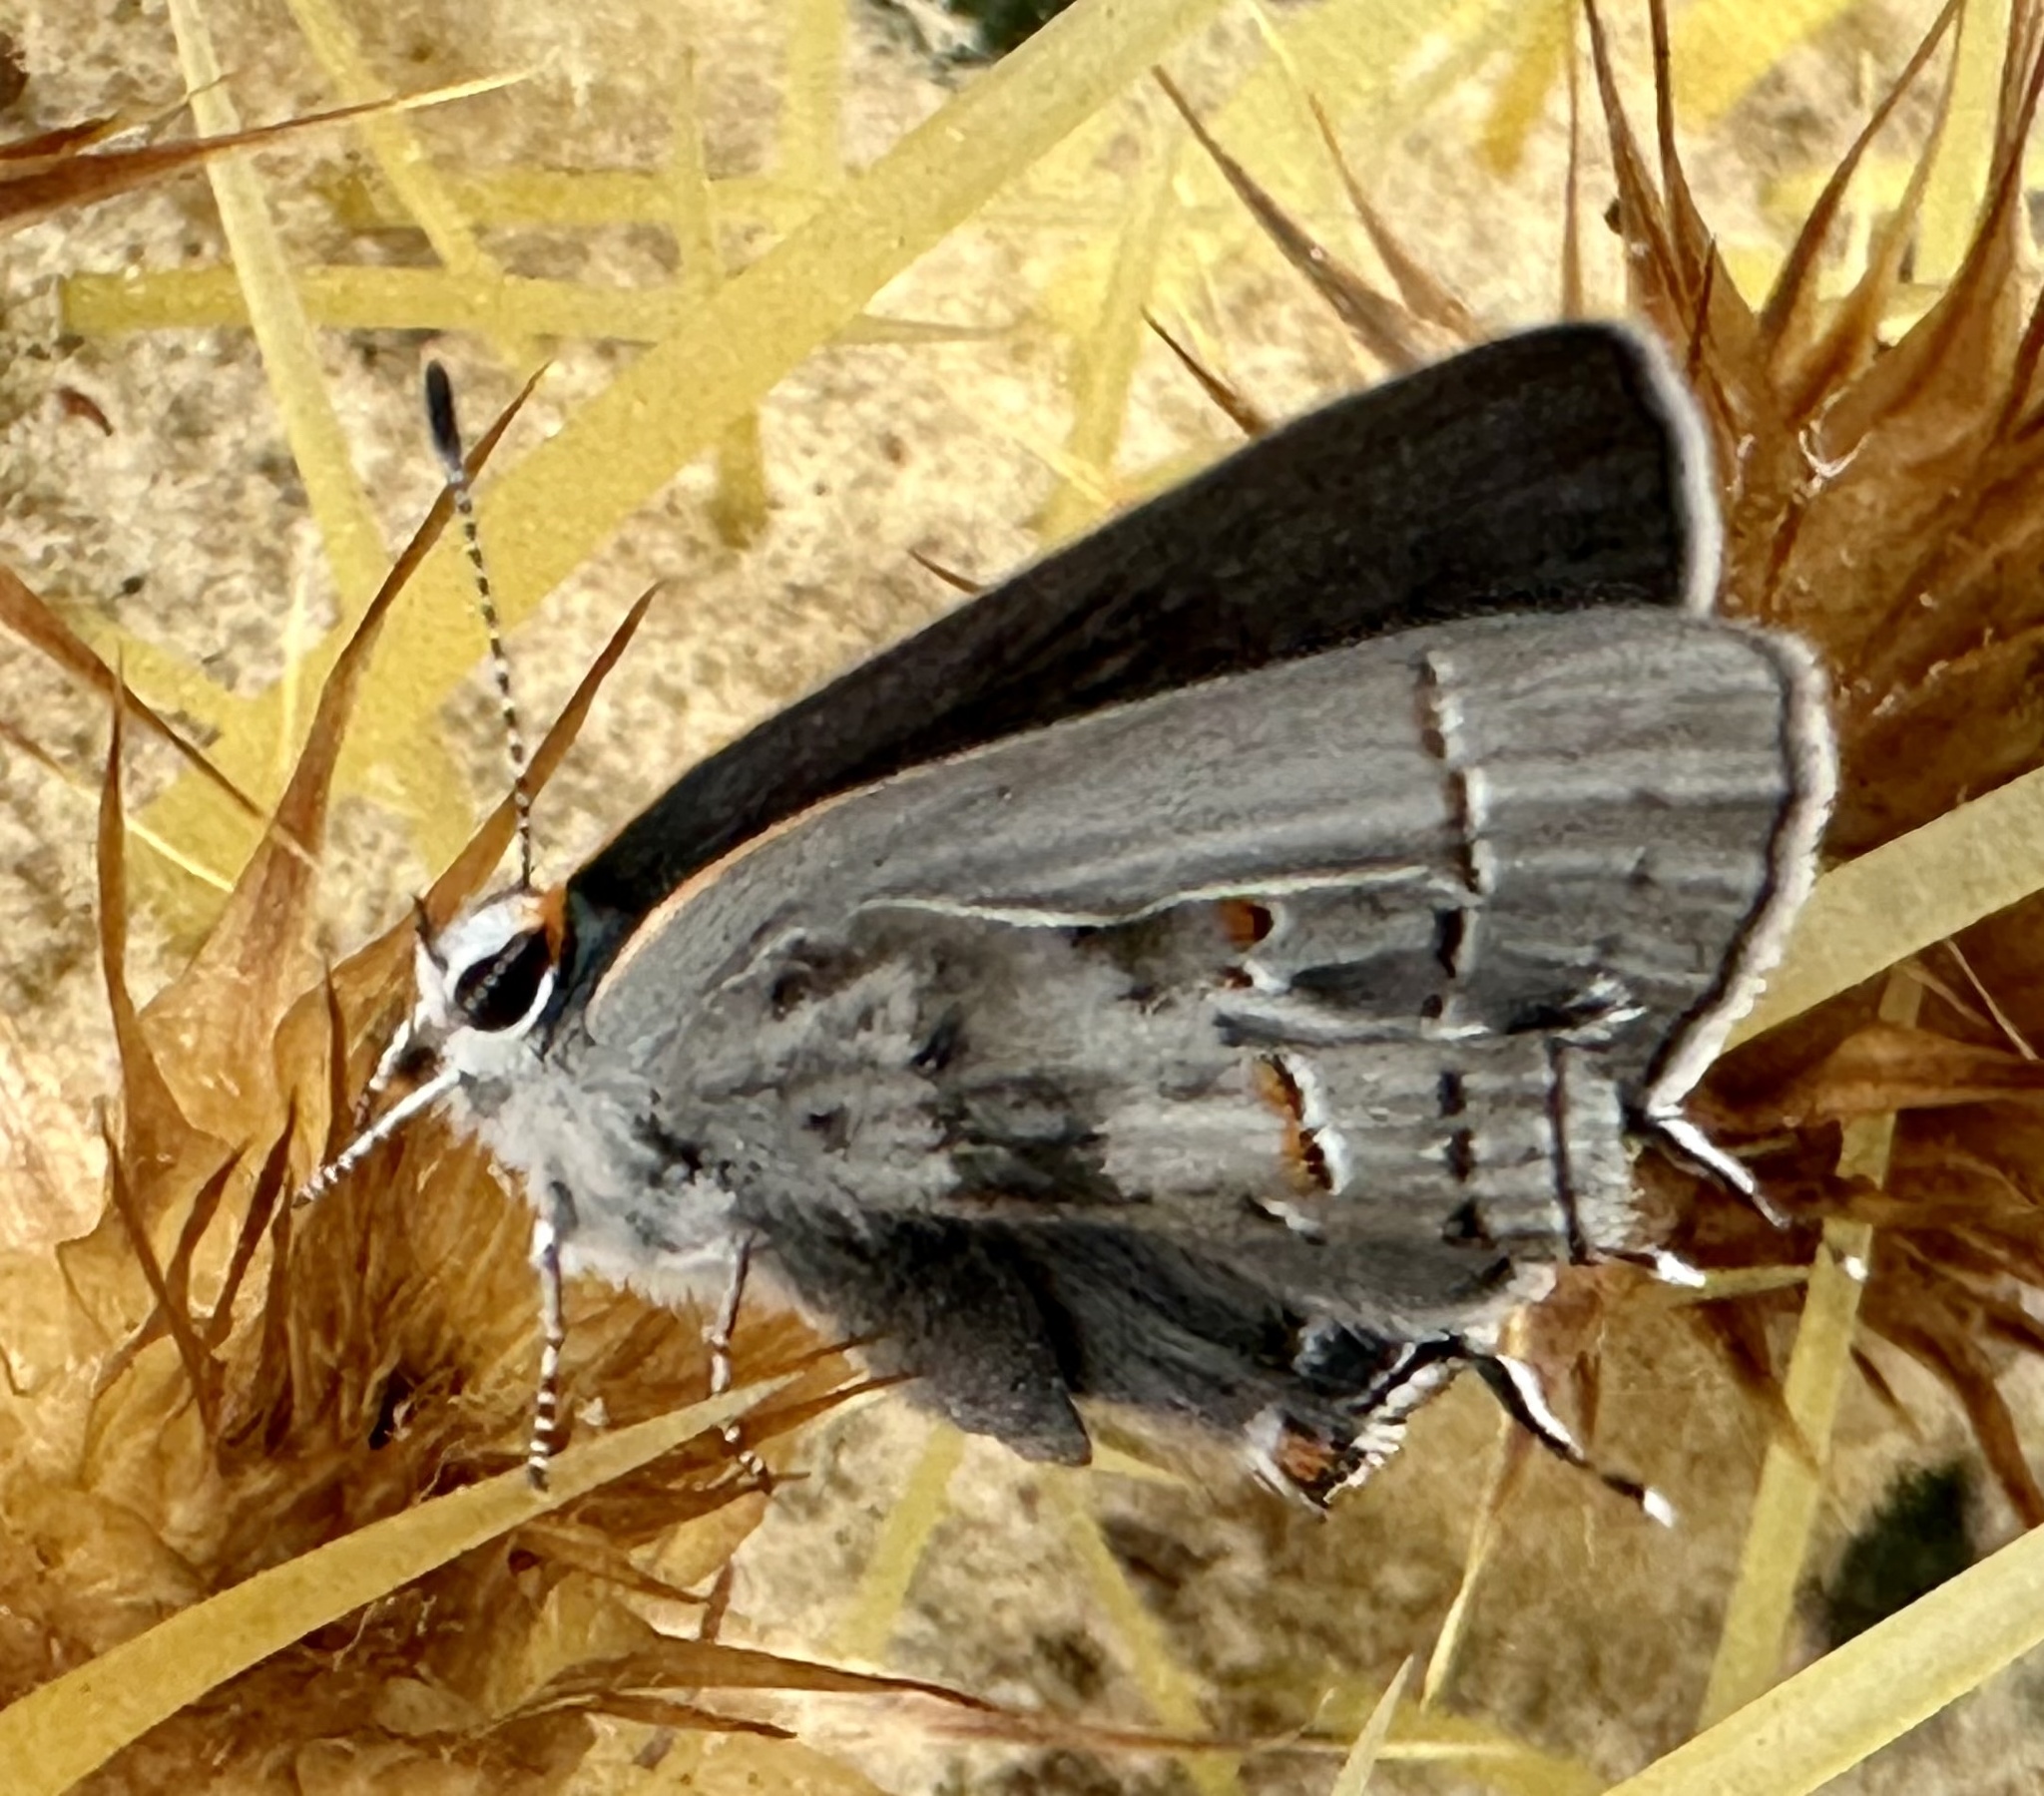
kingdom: Animalia
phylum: Arthropoda
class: Insecta
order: Lepidoptera
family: Lycaenidae
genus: Strymon
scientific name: Strymon melinus
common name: Gray hairstreak
